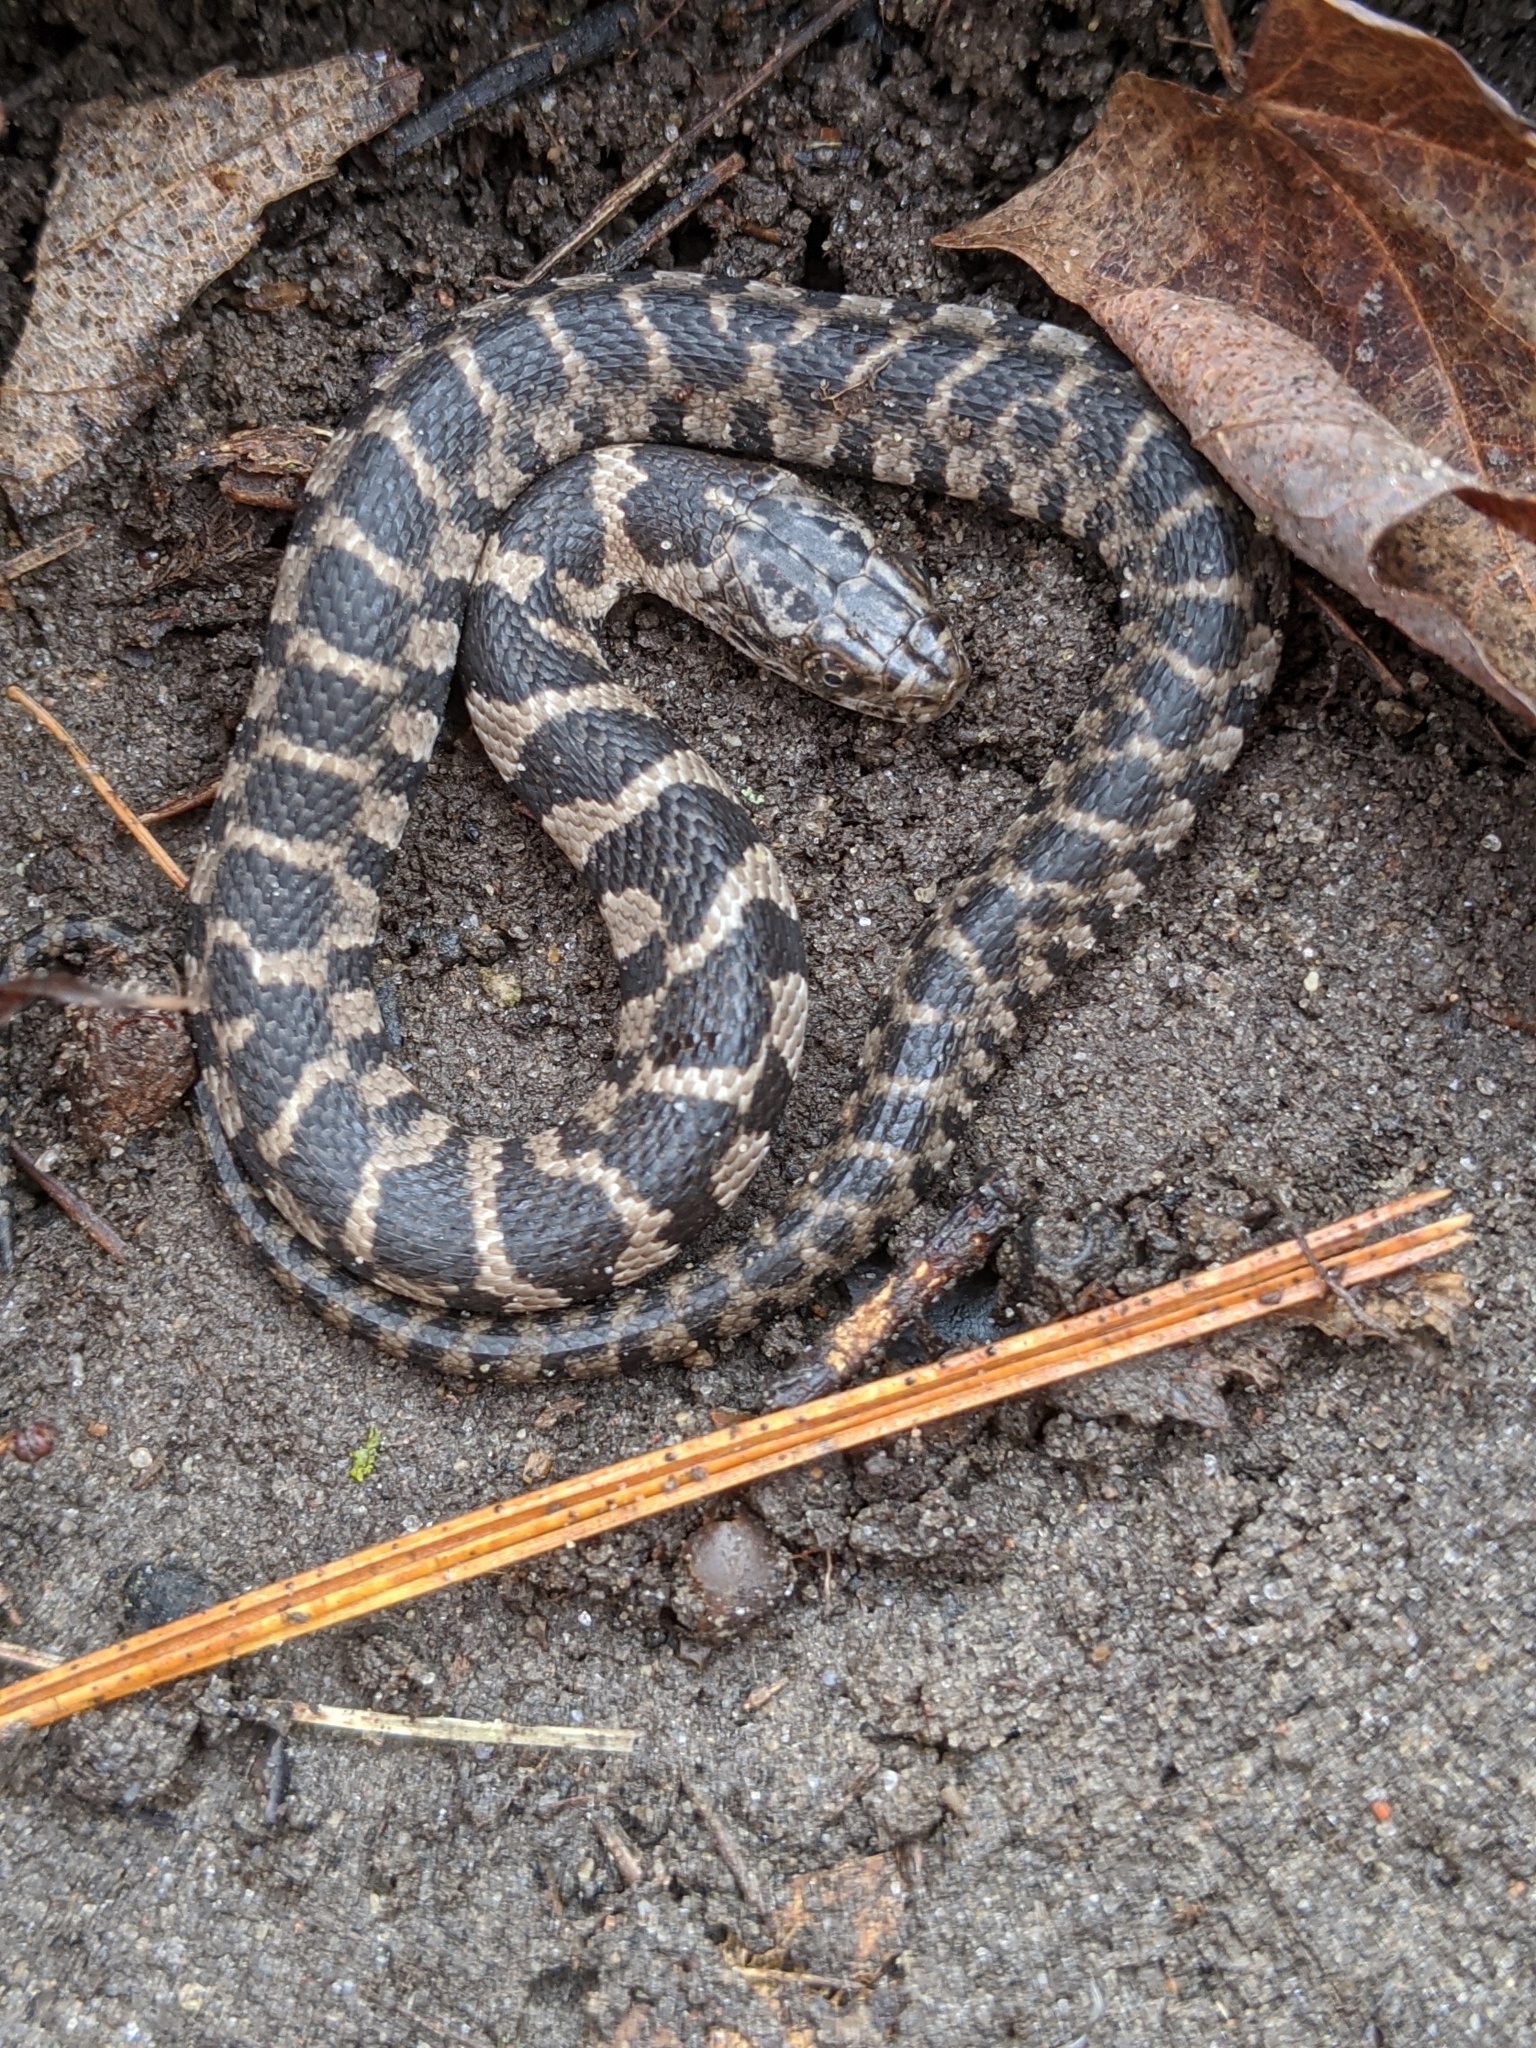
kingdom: Animalia
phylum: Chordata
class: Squamata
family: Colubridae
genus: Nerodia
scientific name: Nerodia sipedon
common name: Northern water snake
